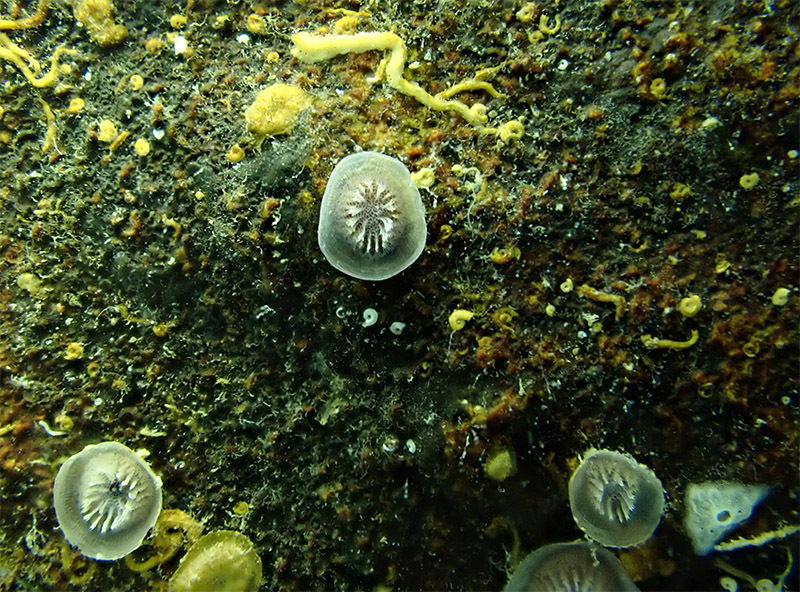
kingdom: Animalia
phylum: Bryozoa
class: Stenolaemata
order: Cyclostomatida
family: Lichenoporidae
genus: Patinella
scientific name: Patinella radiata
